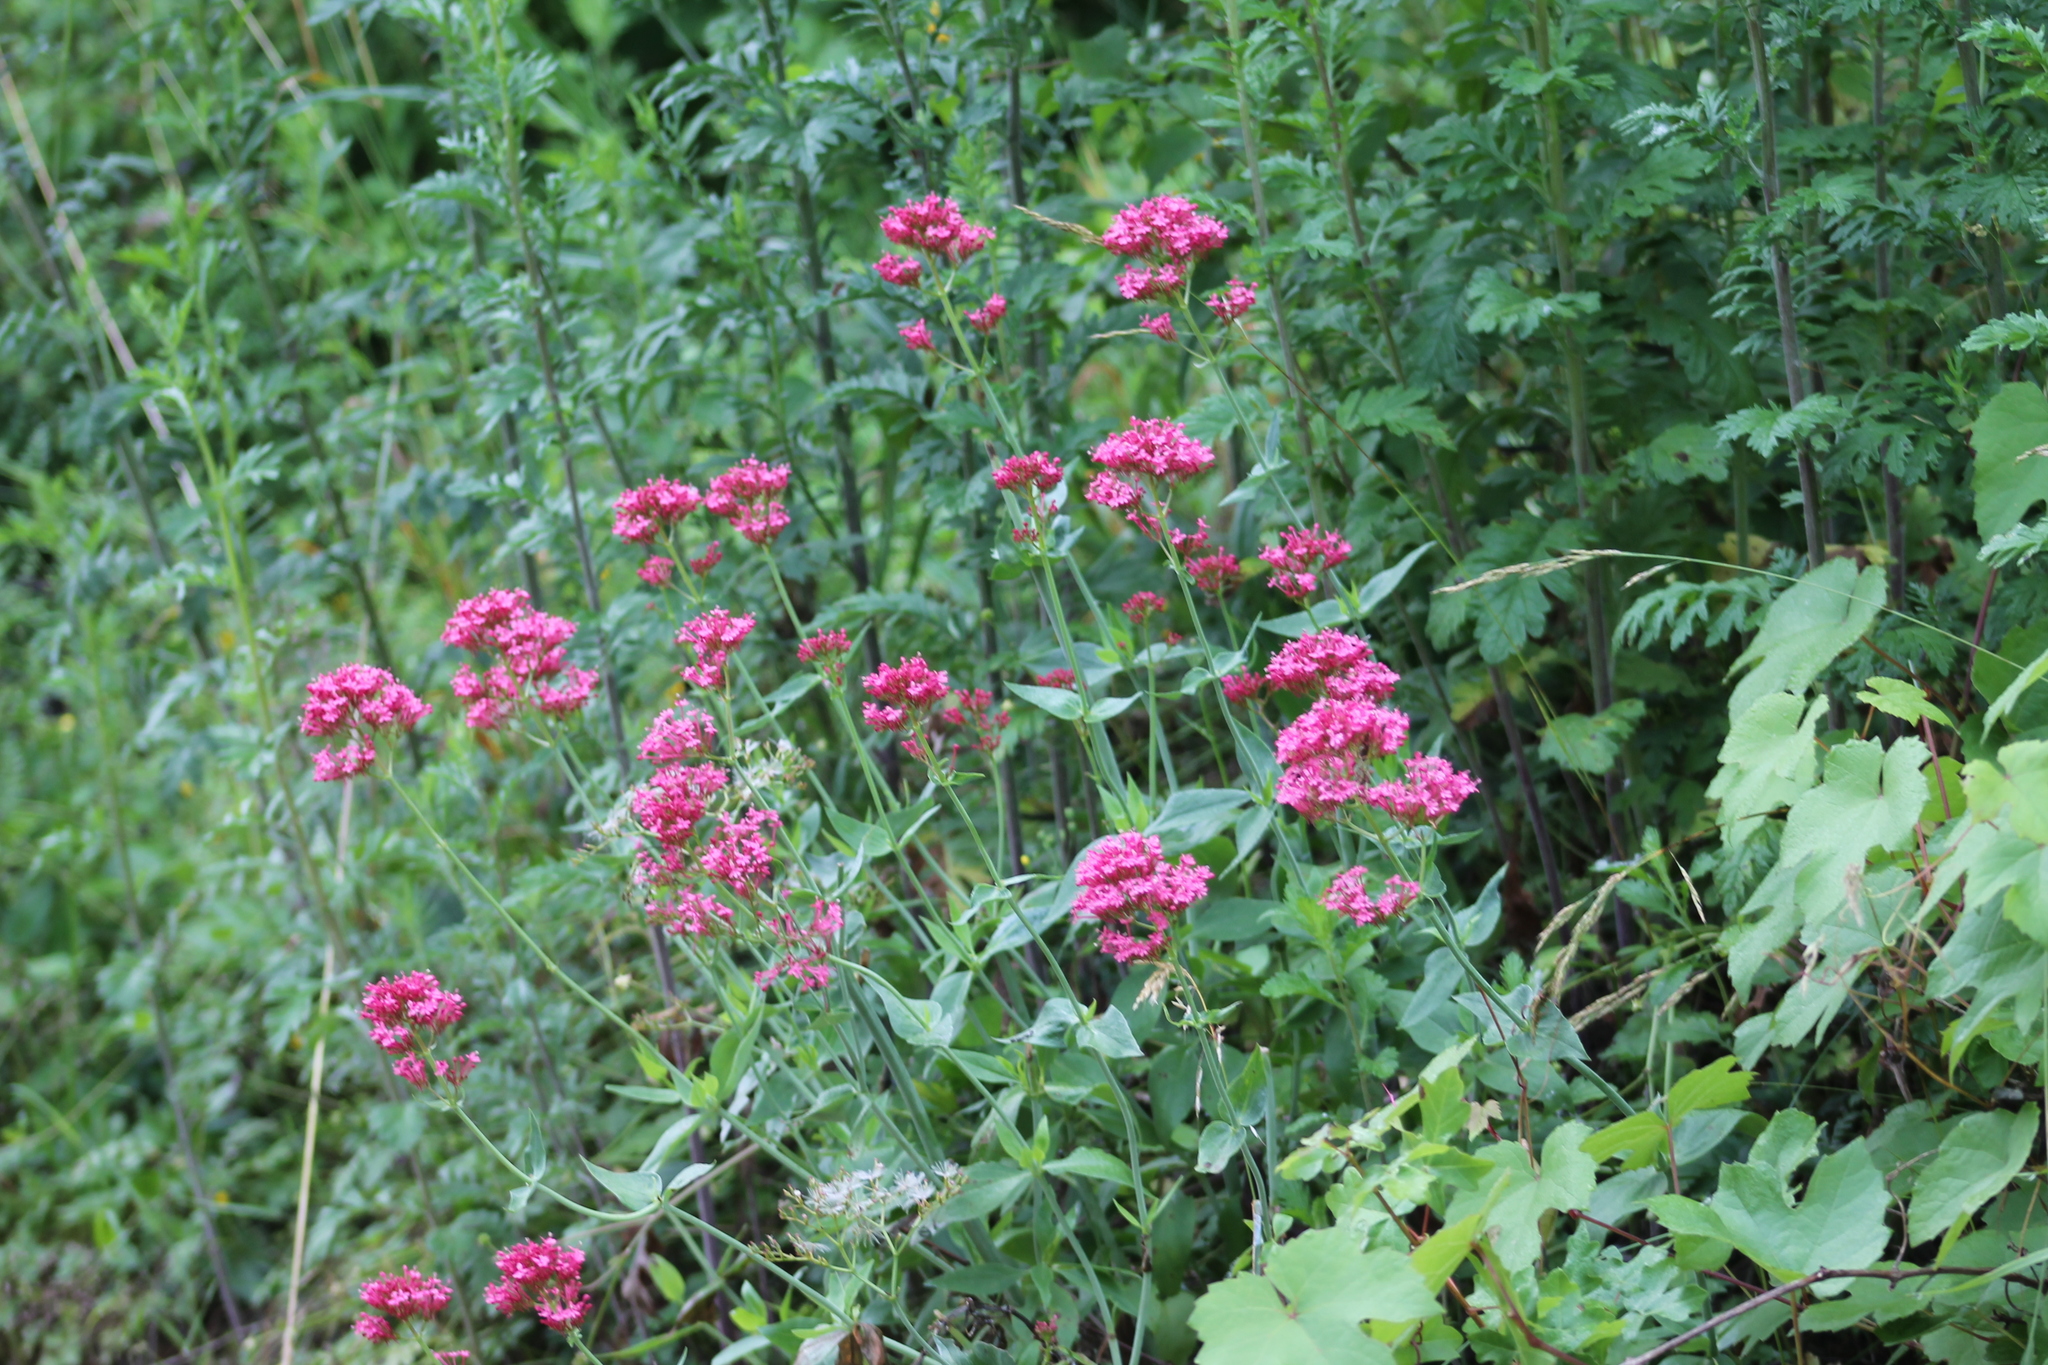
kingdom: Plantae
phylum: Tracheophyta
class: Magnoliopsida
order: Dipsacales
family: Caprifoliaceae
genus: Centranthus
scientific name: Centranthus ruber
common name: Red valerian
